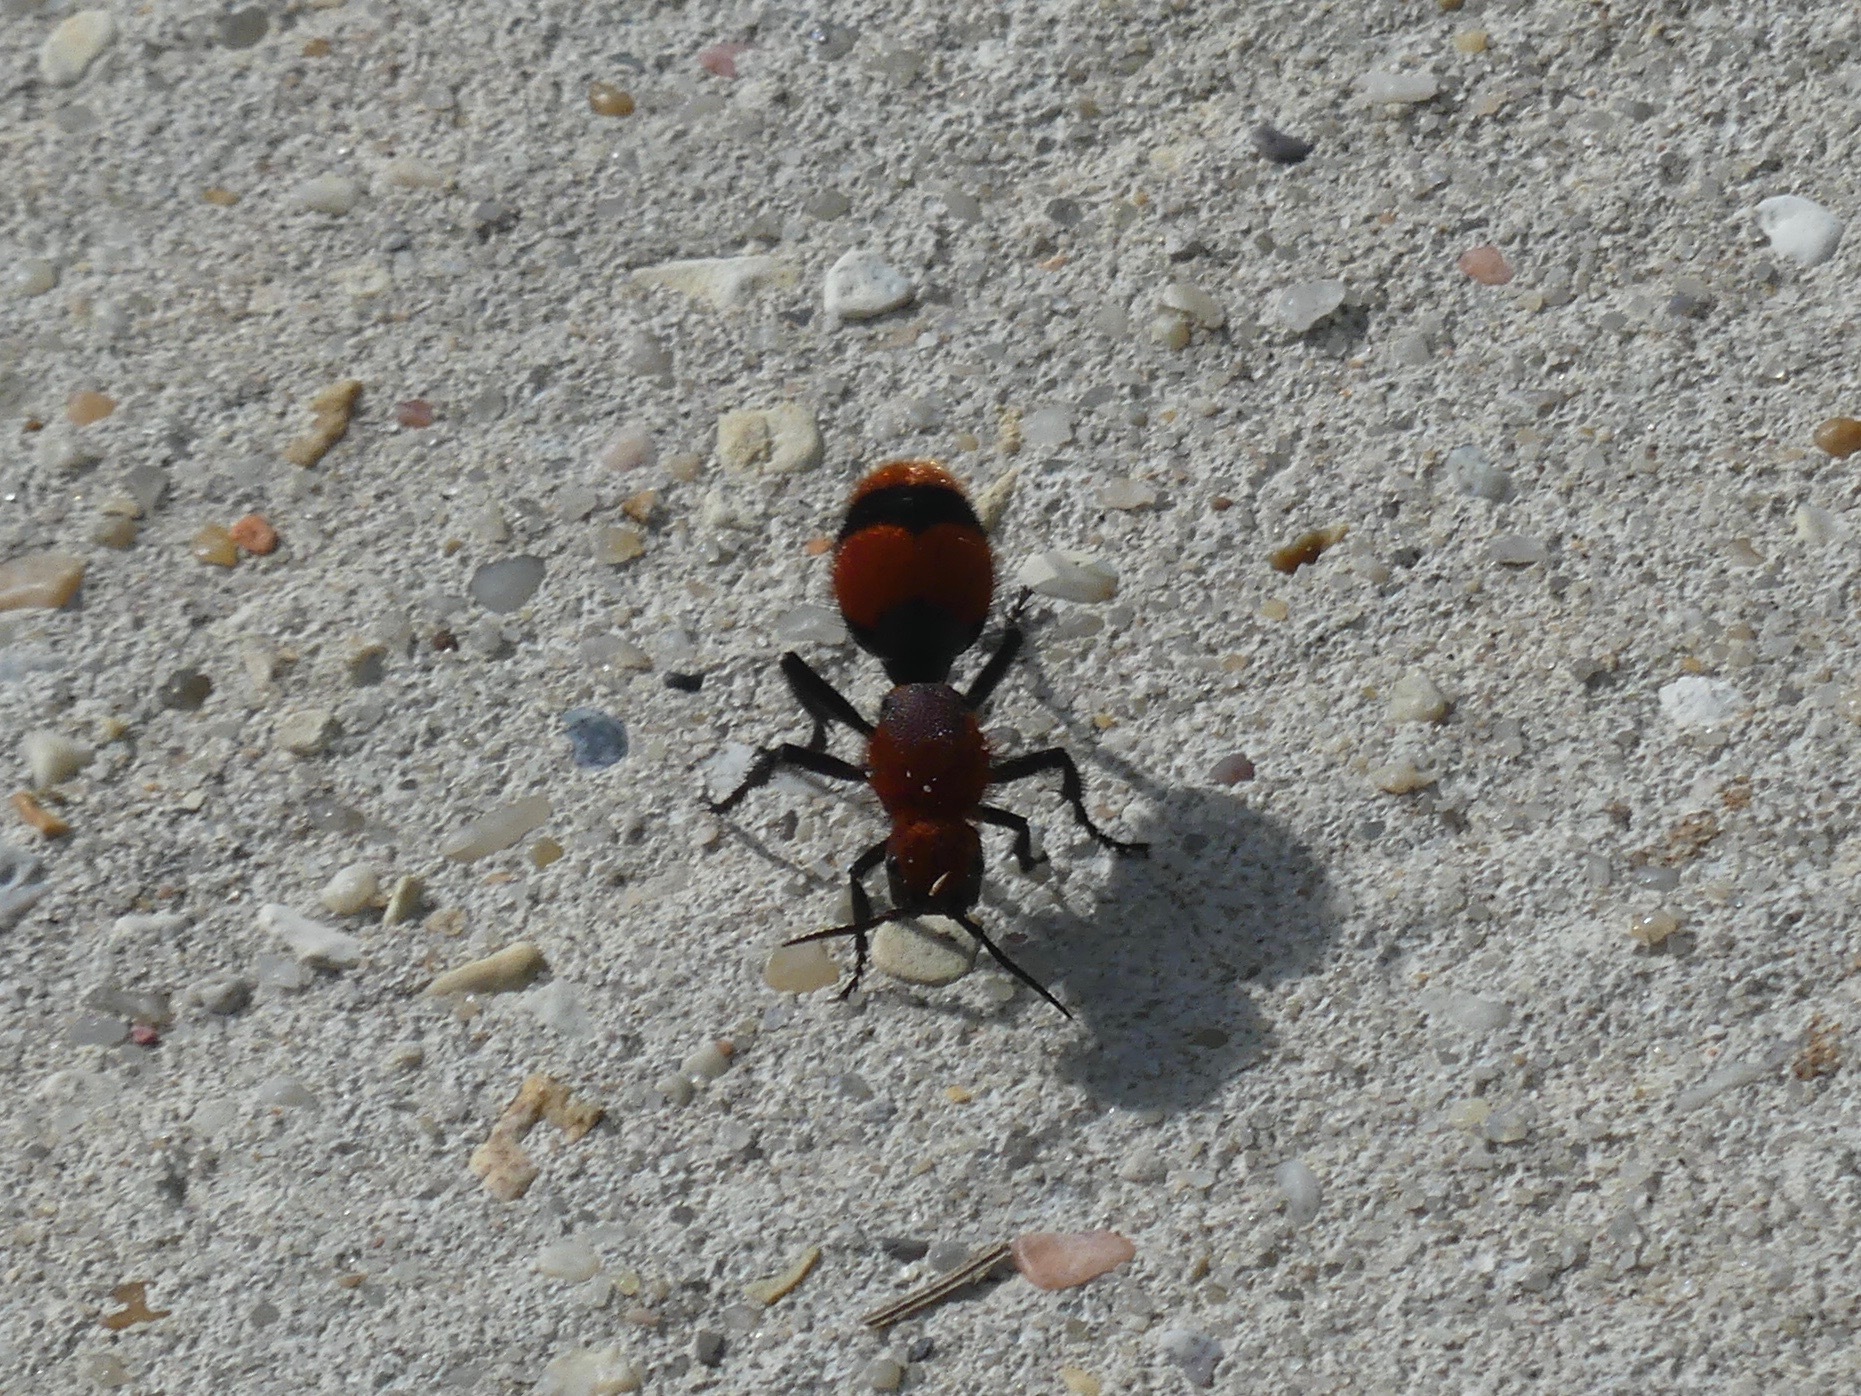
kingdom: Animalia
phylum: Arthropoda
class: Insecta
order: Hymenoptera
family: Mutillidae
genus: Dasymutilla
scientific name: Dasymutilla occidentalis
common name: Common eastern velvet ant
